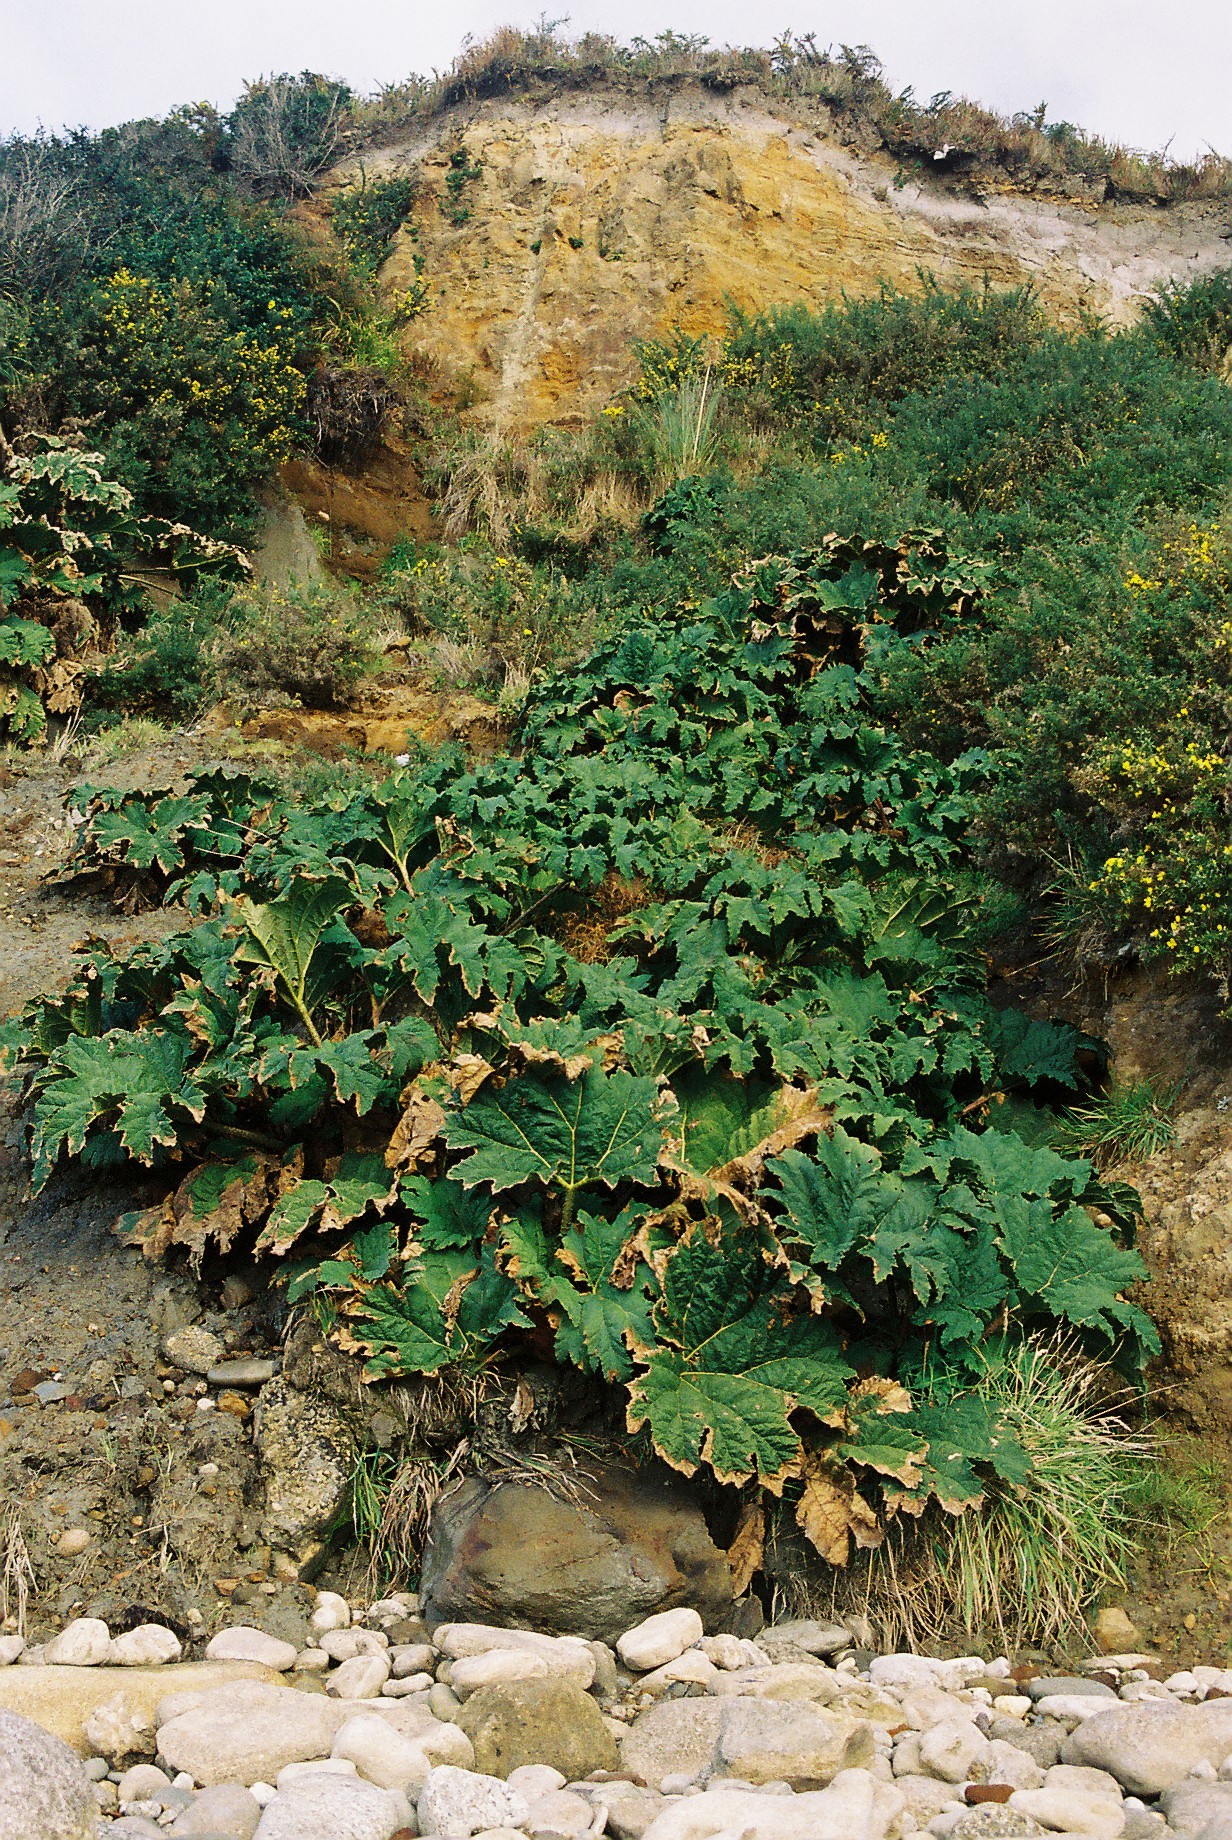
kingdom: Plantae
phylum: Tracheophyta
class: Magnoliopsida
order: Gunnerales
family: Gunneraceae
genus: Gunnera
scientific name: Gunnera tinctoria
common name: Giant-rhubarb
